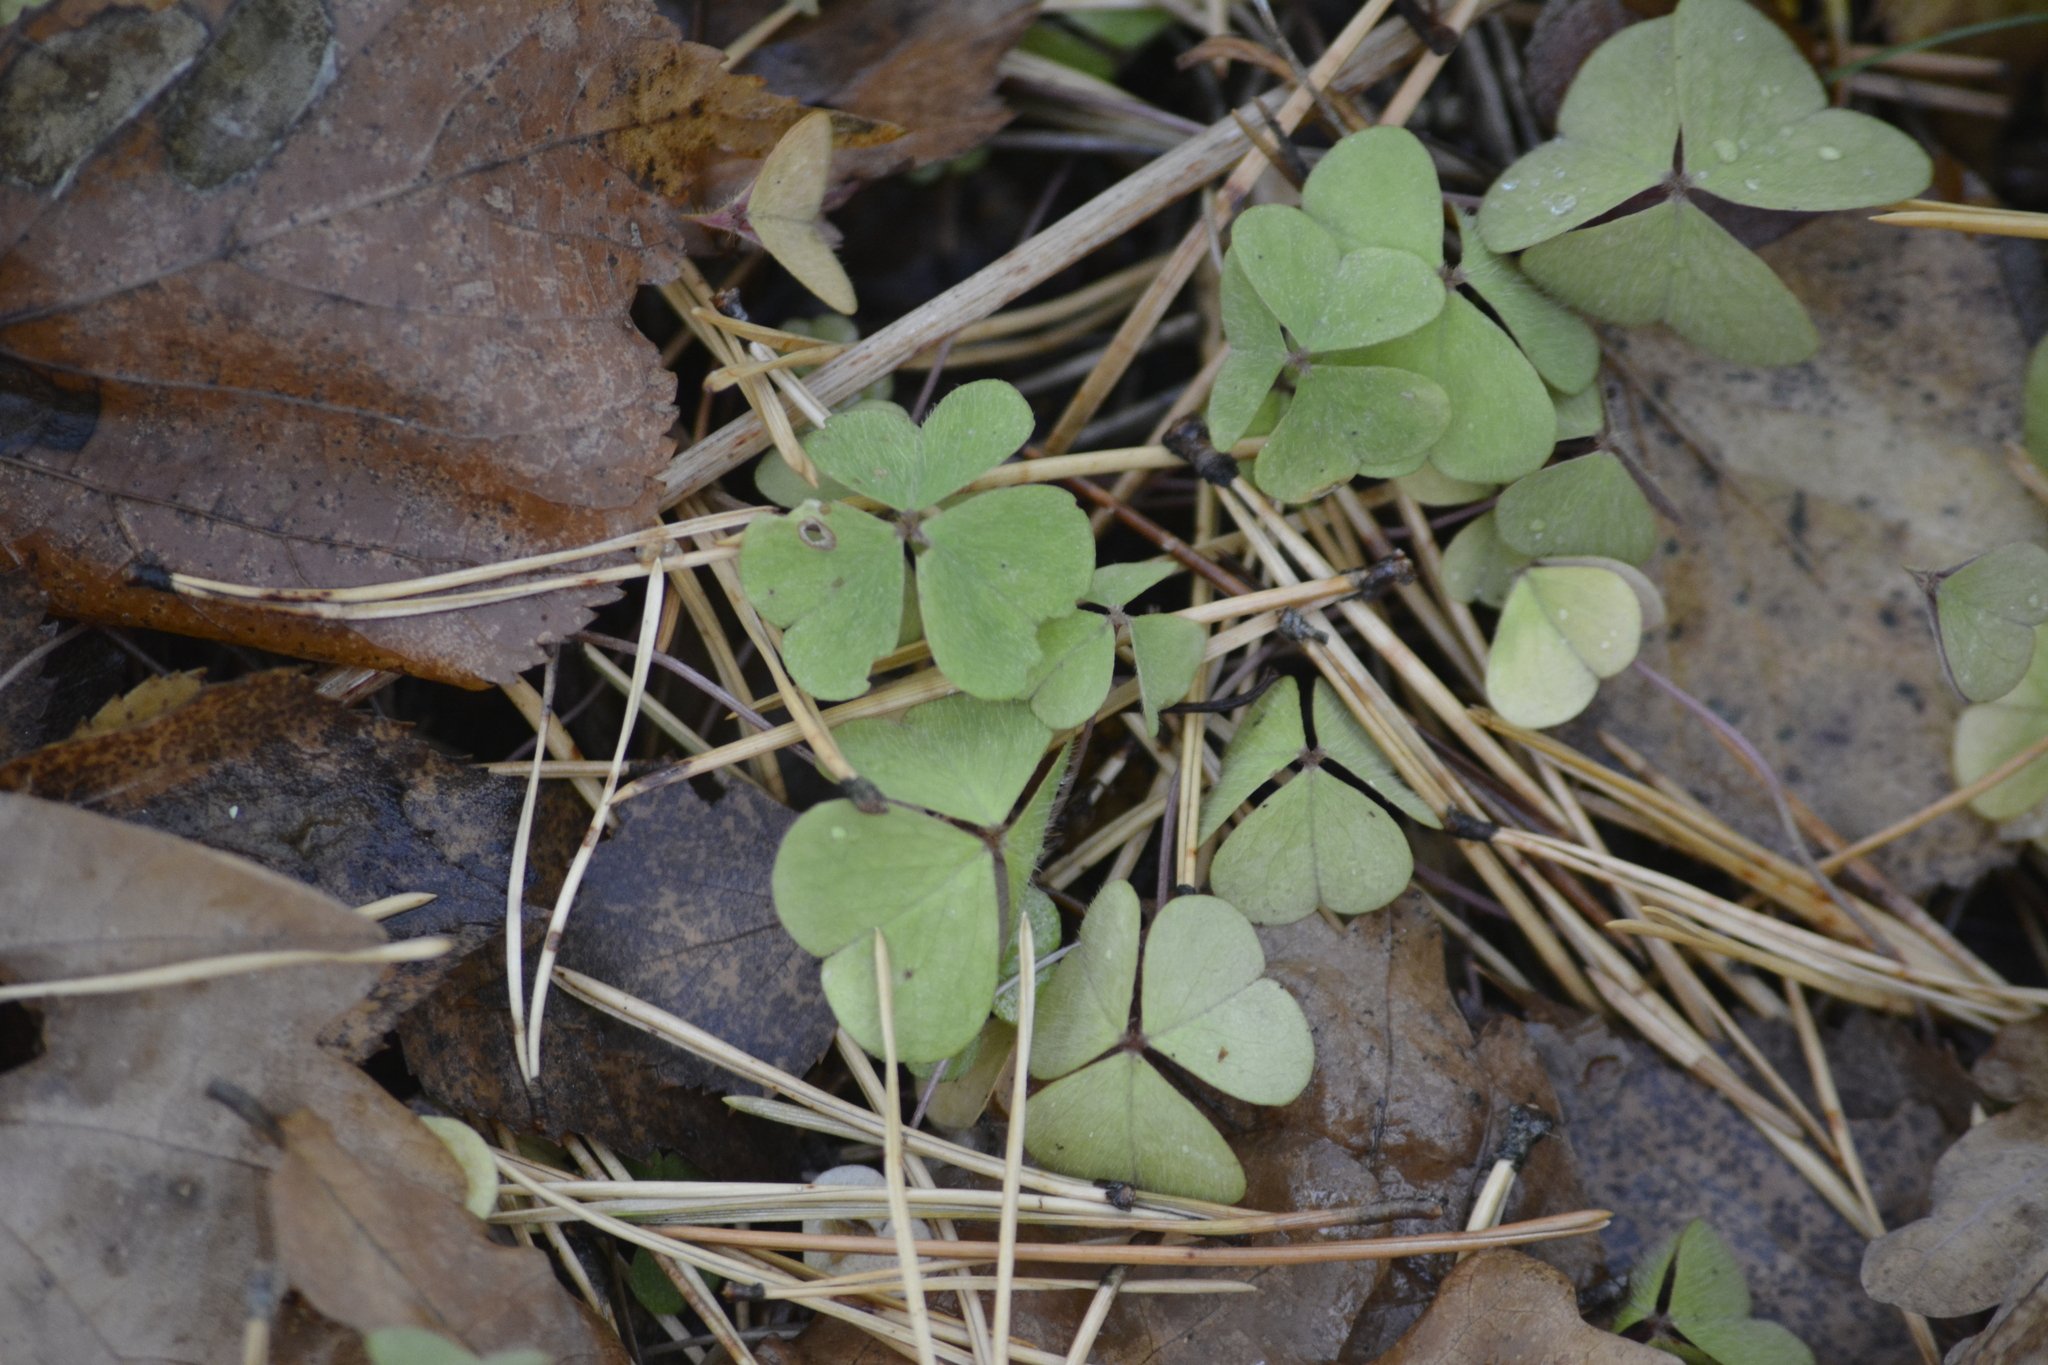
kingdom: Plantae
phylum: Tracheophyta
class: Magnoliopsida
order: Oxalidales
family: Oxalidaceae
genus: Oxalis
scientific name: Oxalis acetosella
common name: Wood-sorrel
